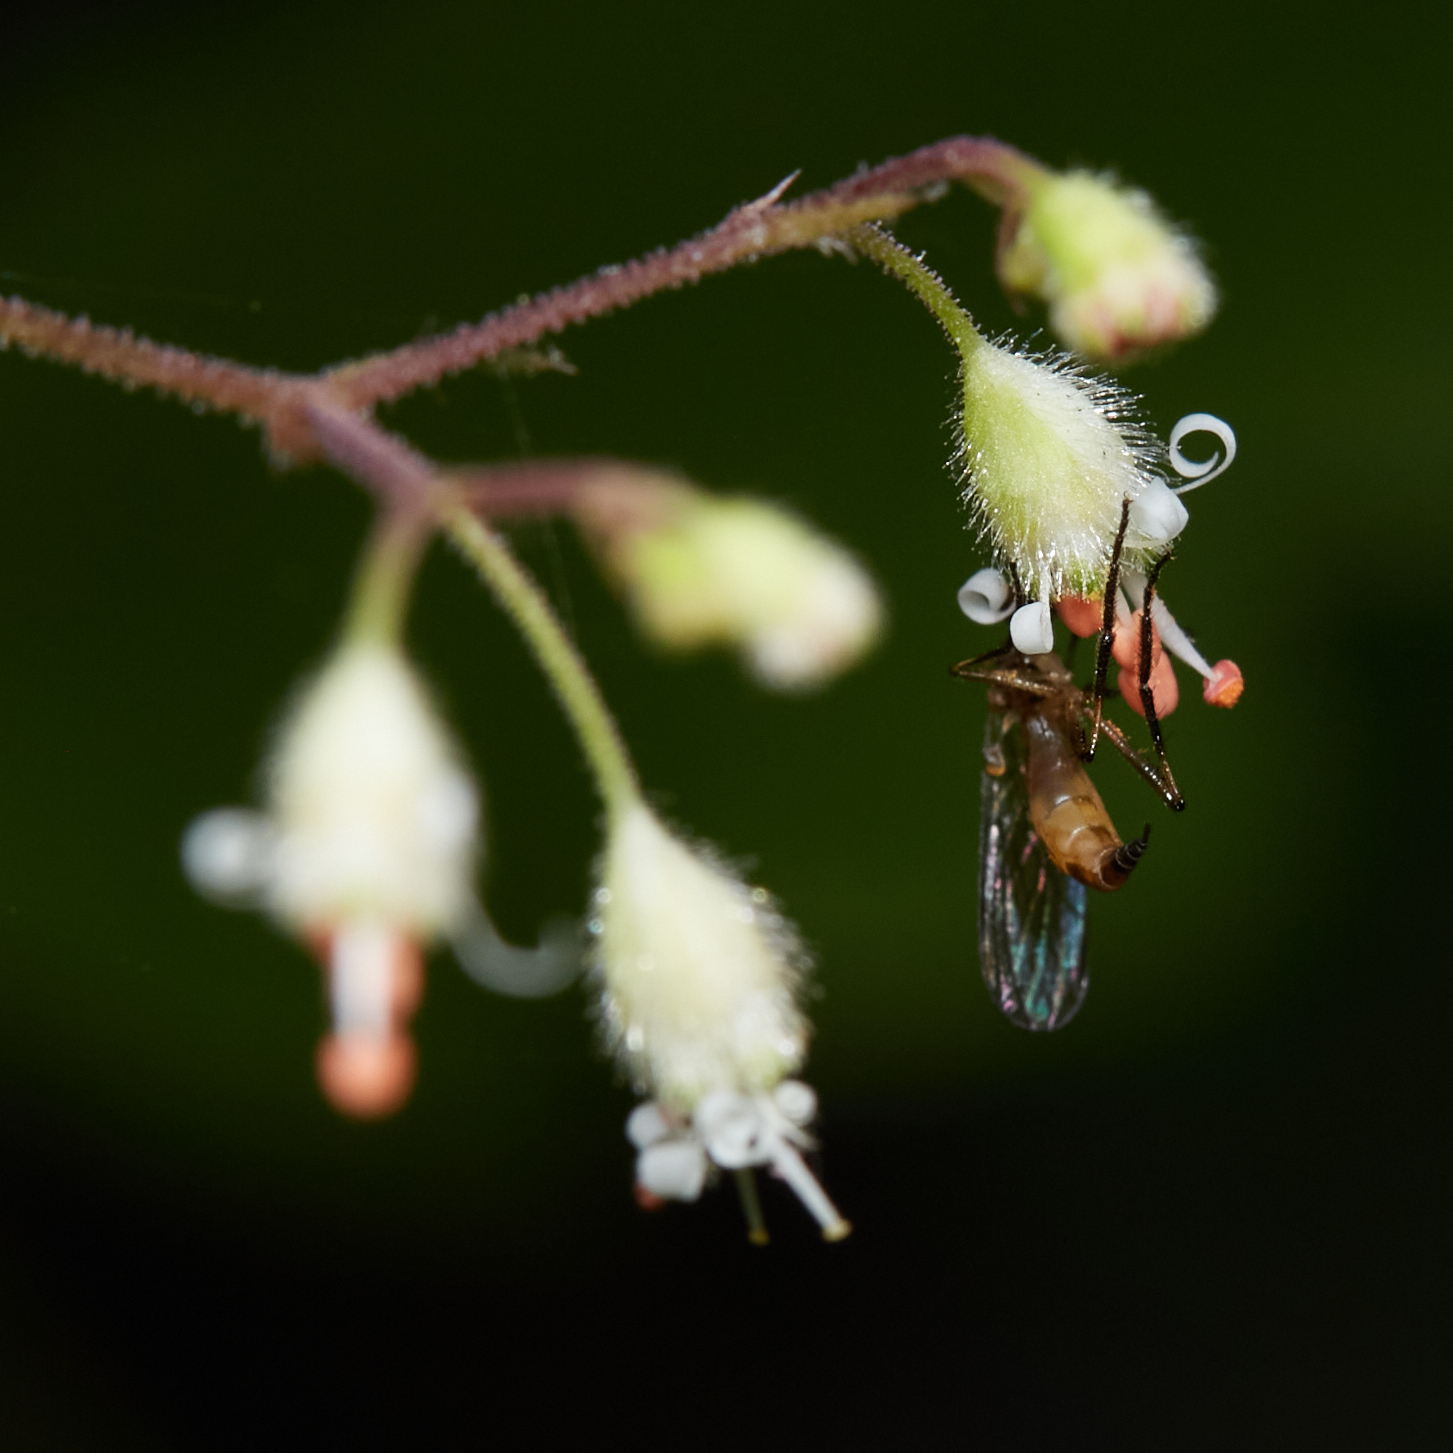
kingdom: Plantae
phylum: Tracheophyta
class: Magnoliopsida
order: Saxifragales
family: Saxifragaceae
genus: Heuchera
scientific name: Heuchera micrantha
